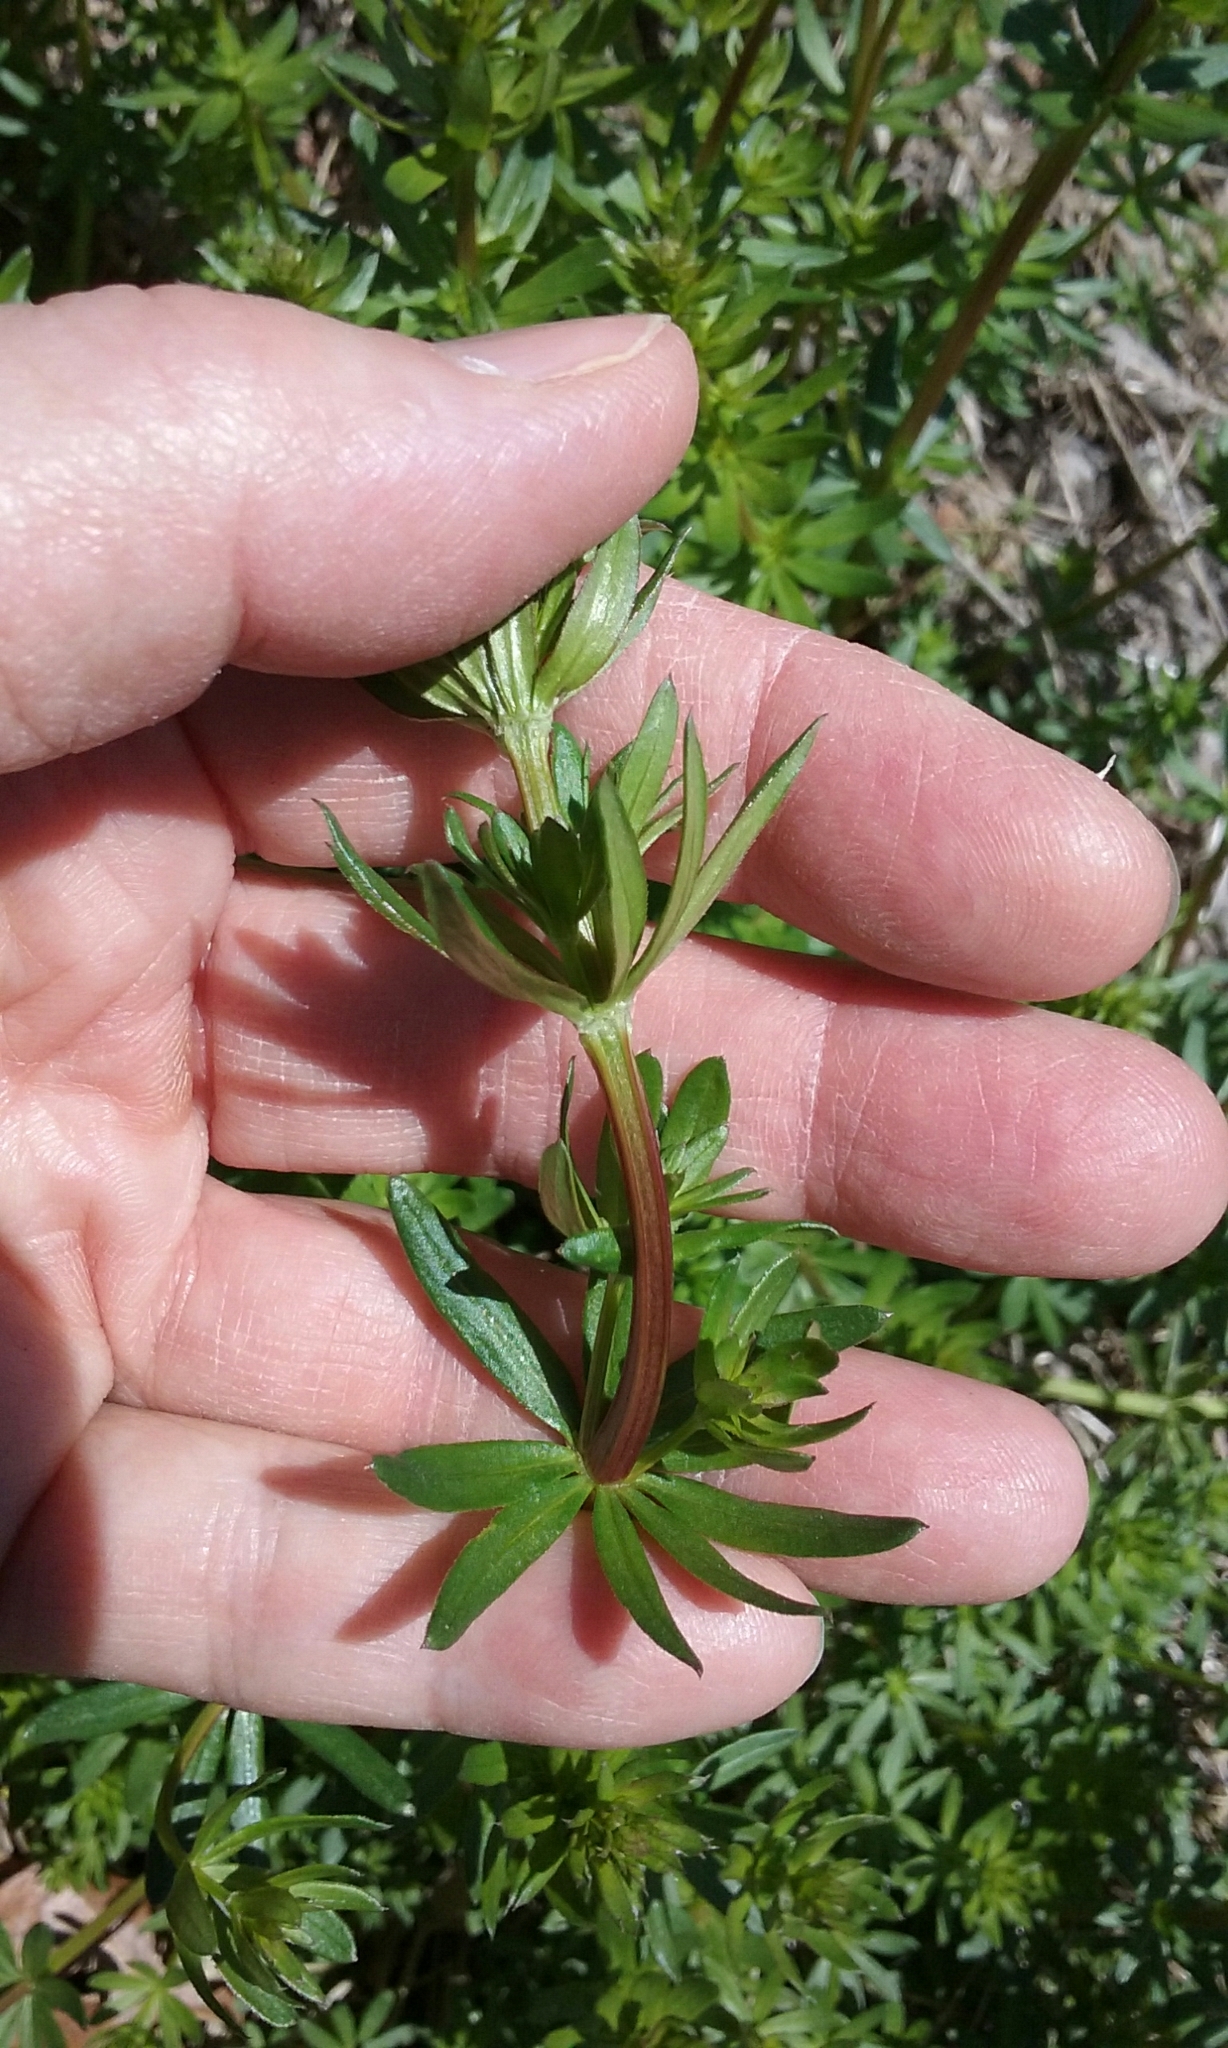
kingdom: Plantae
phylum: Tracheophyta
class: Magnoliopsida
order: Gentianales
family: Rubiaceae
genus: Galium
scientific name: Galium mollugo
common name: Hedge bedstraw
